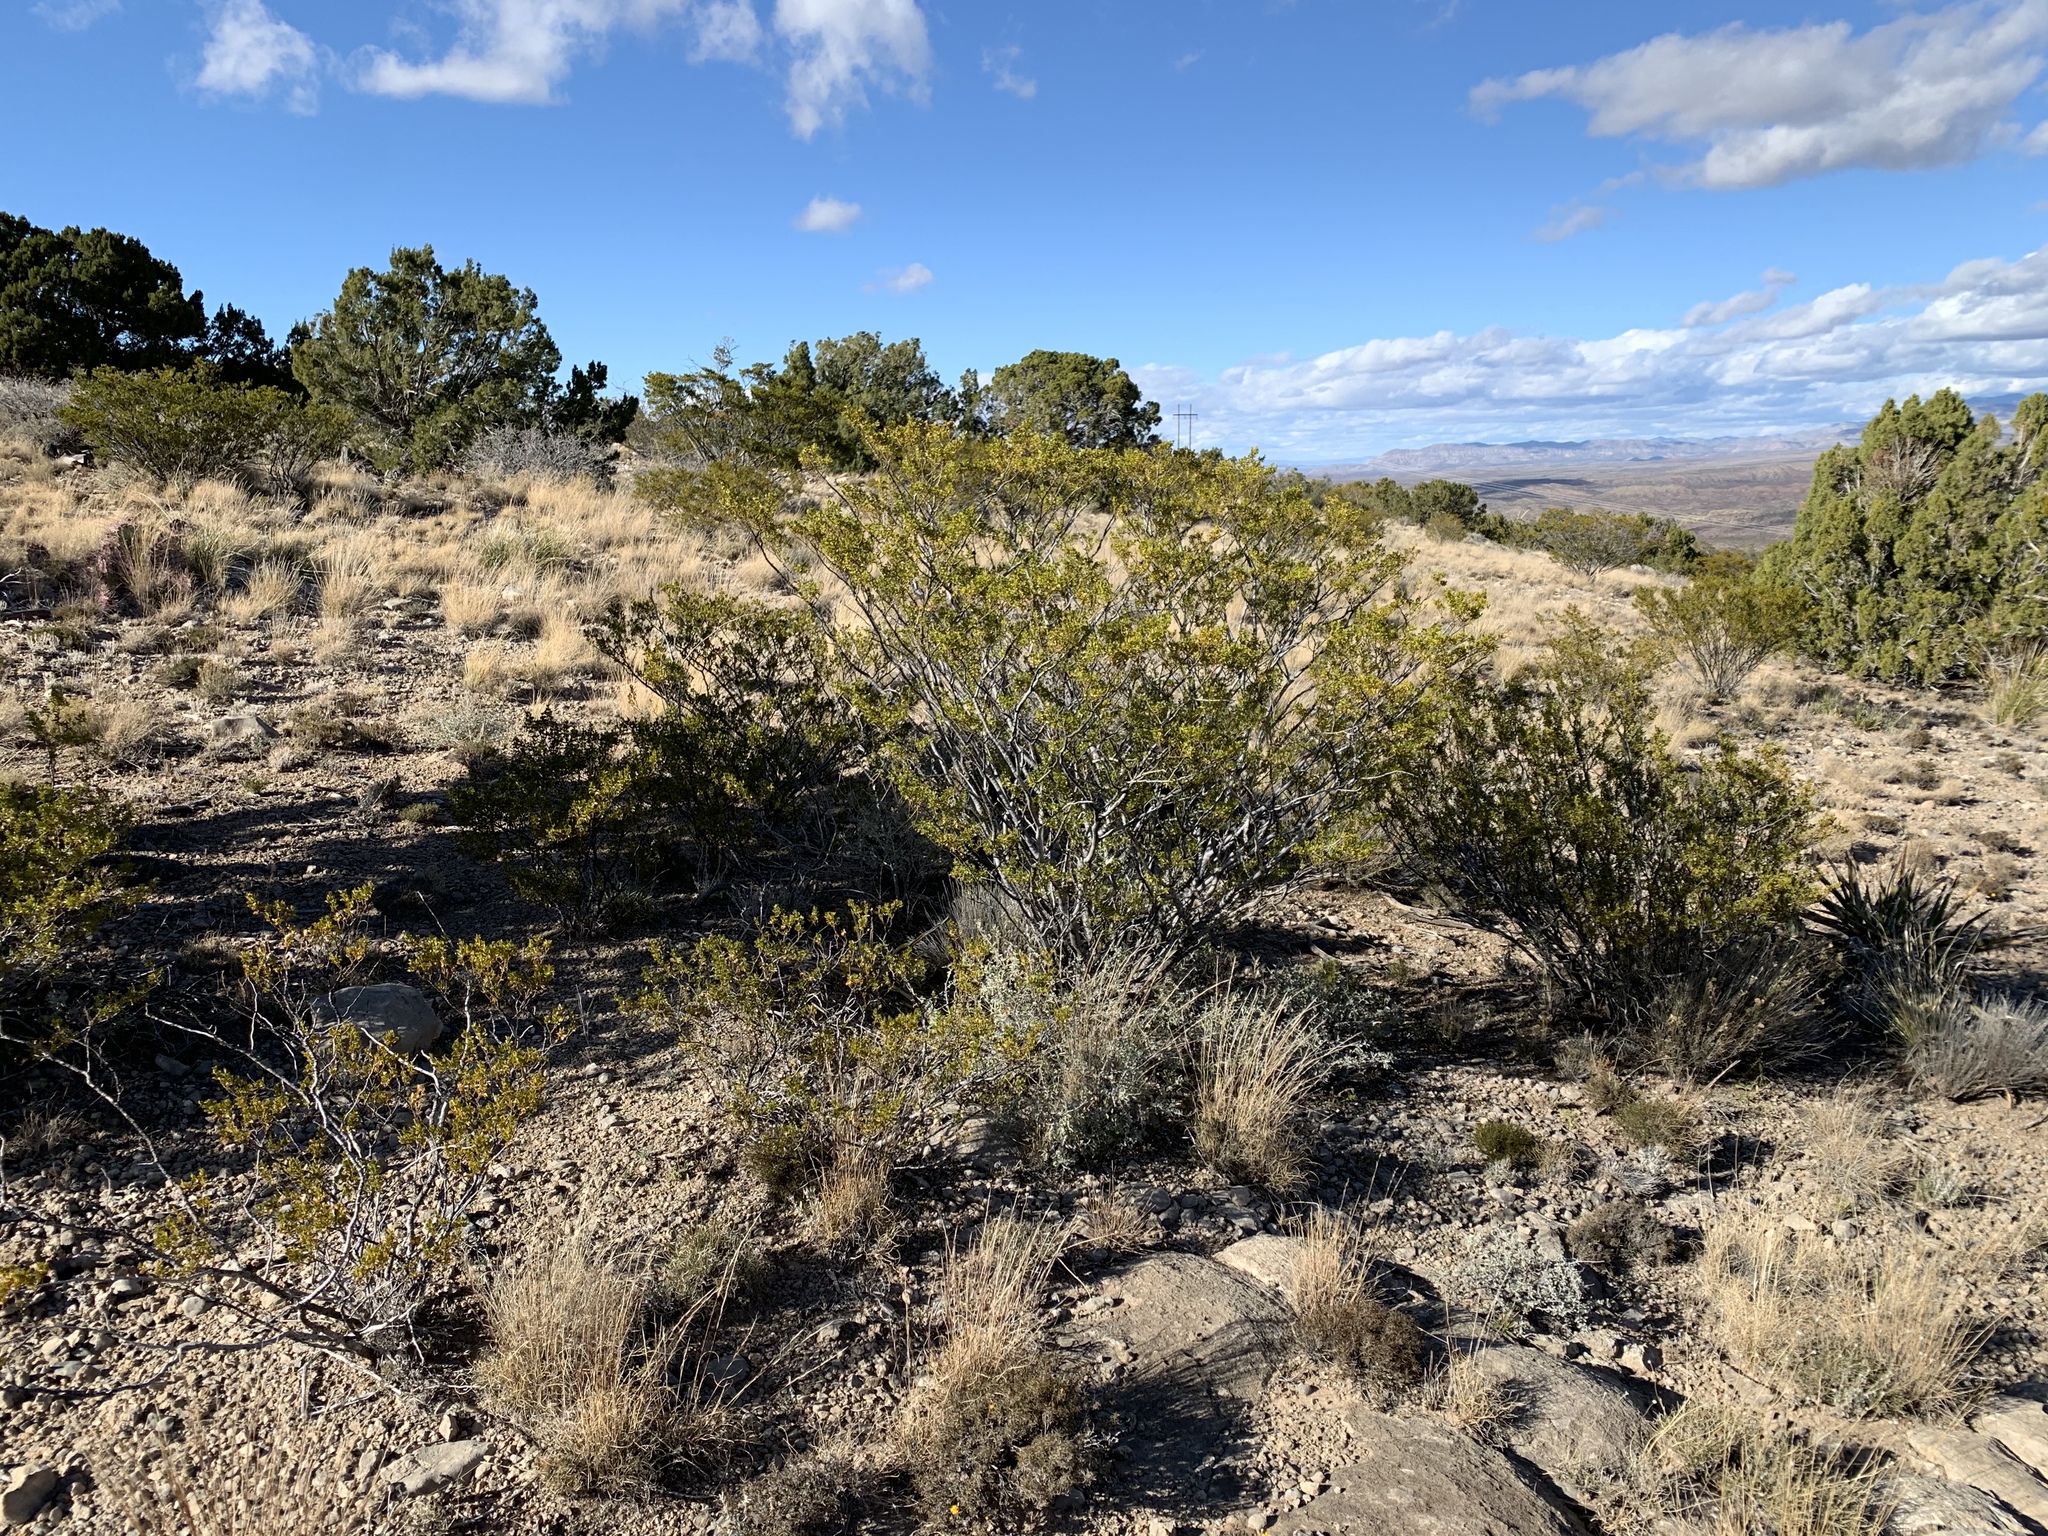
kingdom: Plantae
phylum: Tracheophyta
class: Magnoliopsida
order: Zygophyllales
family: Zygophyllaceae
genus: Larrea
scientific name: Larrea tridentata
